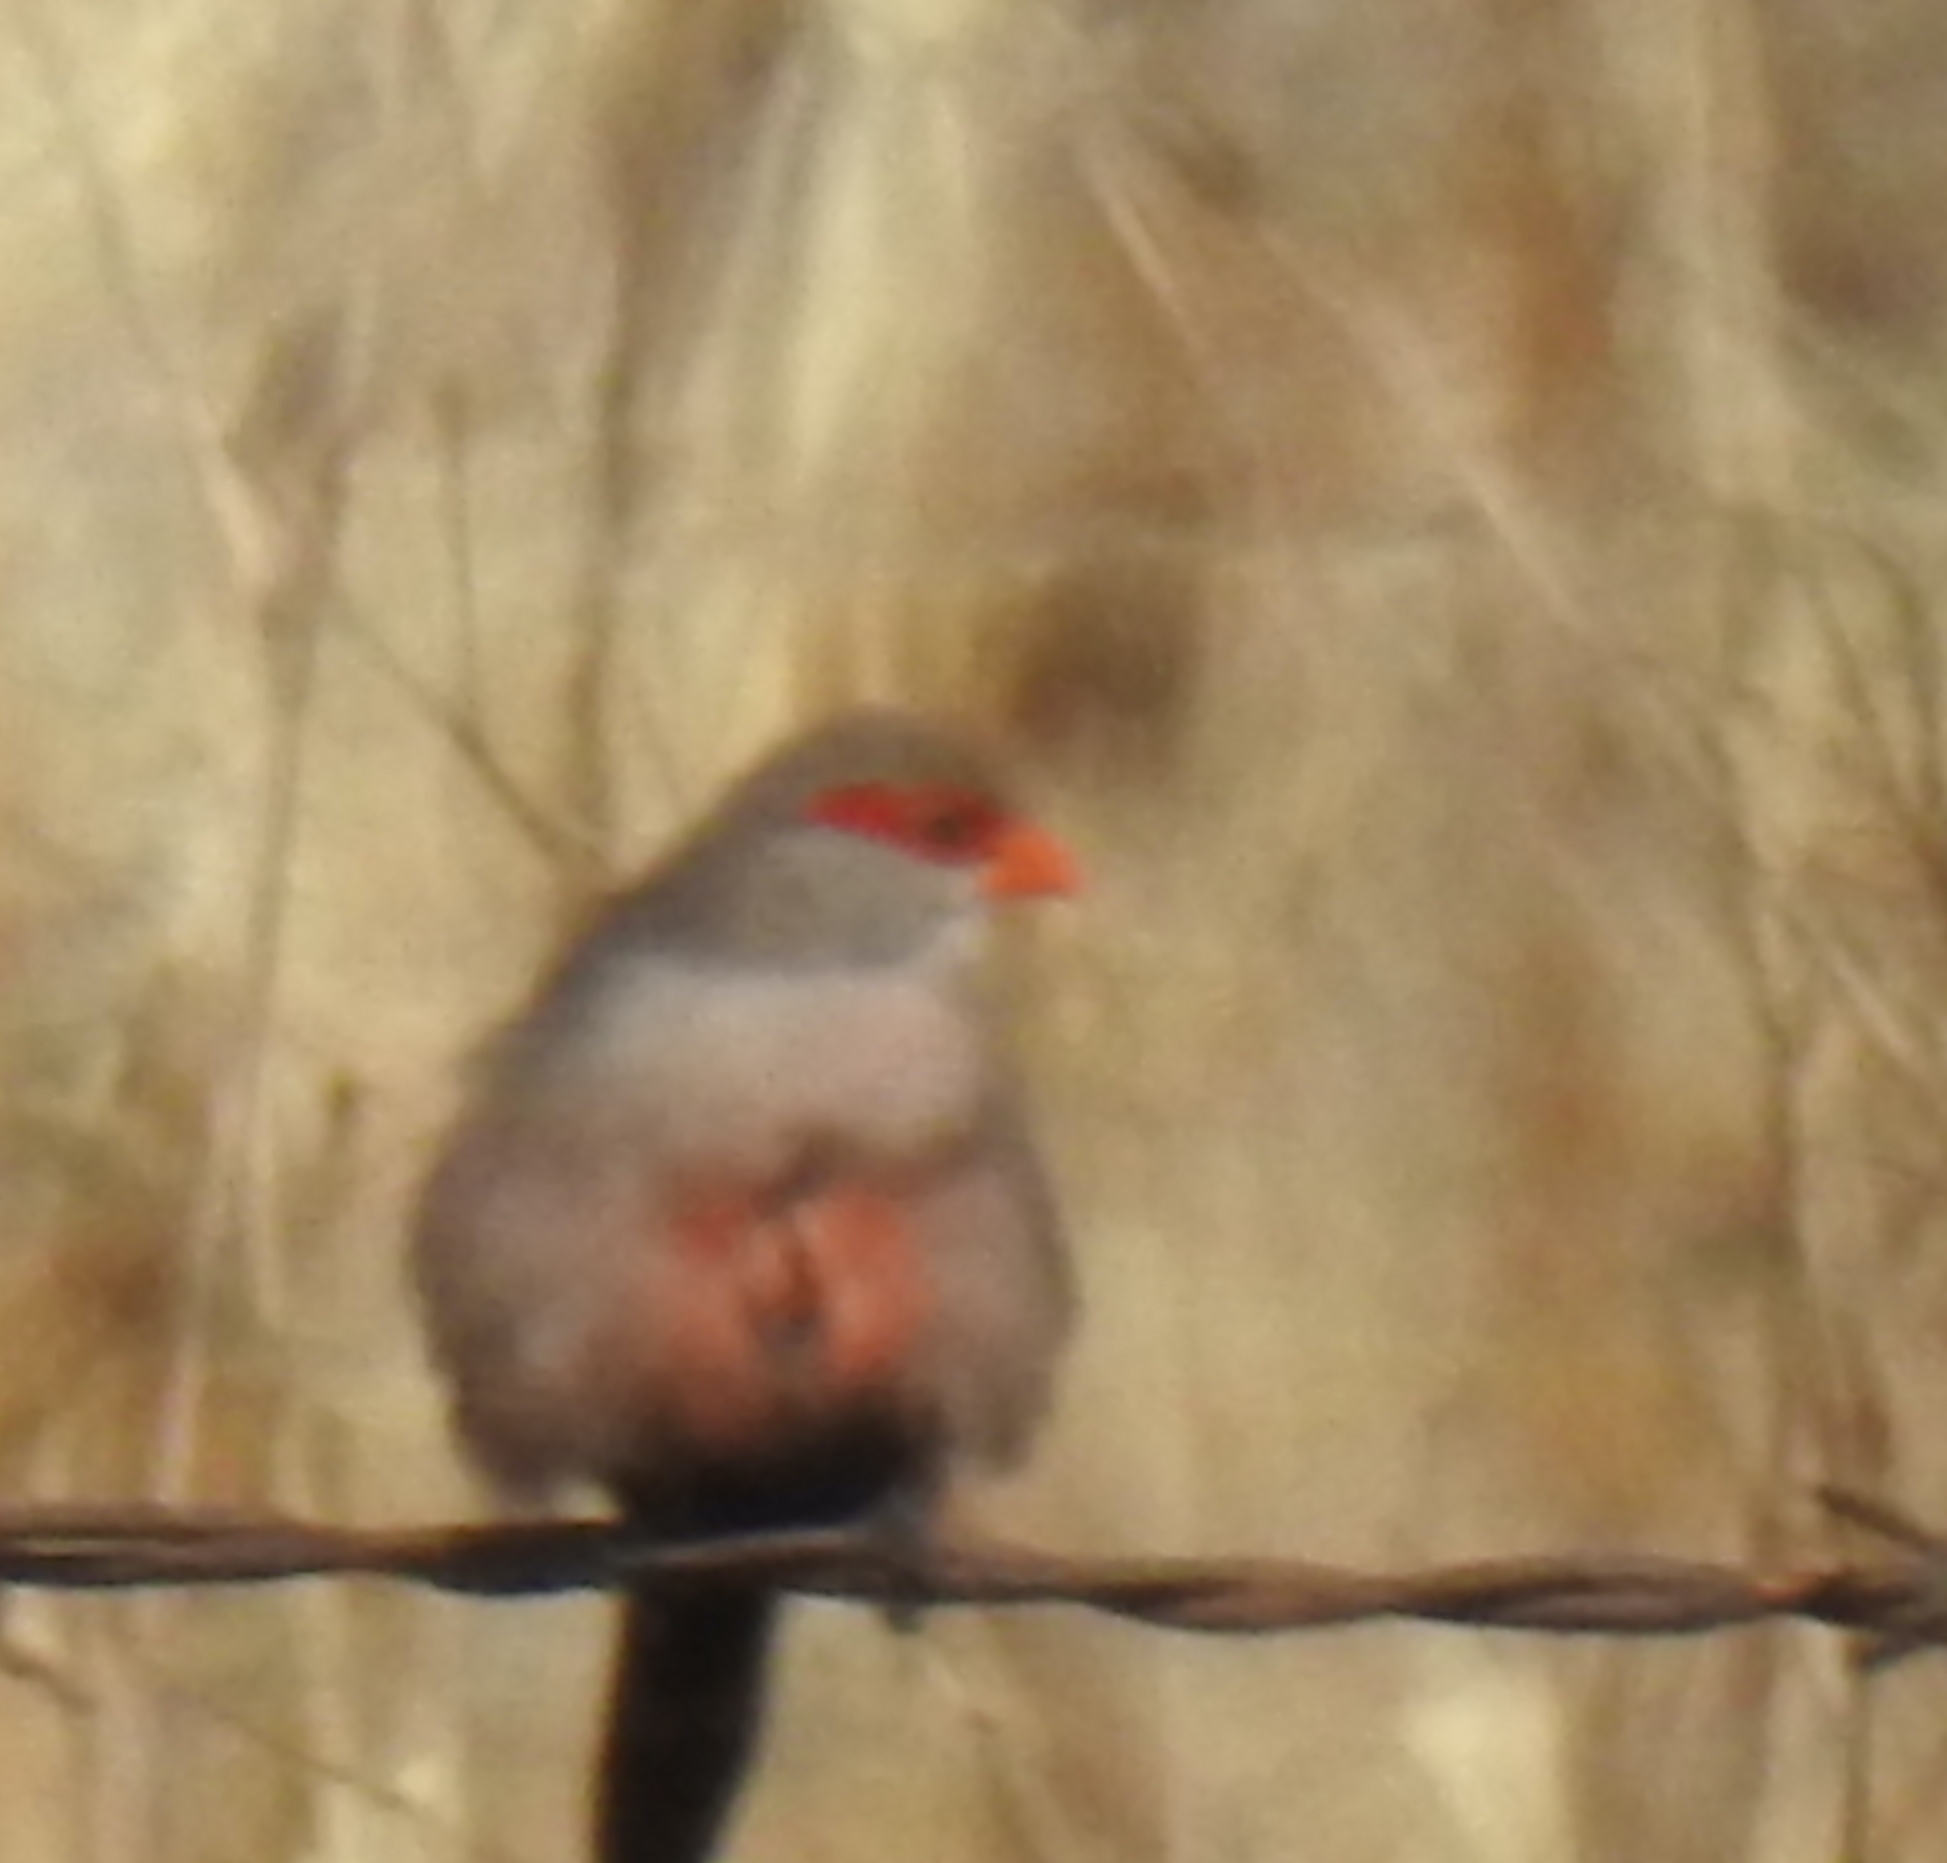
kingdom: Animalia
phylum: Chordata
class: Aves
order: Passeriformes
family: Estrildidae
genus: Estrilda
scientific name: Estrilda astrild
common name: Common waxbill
